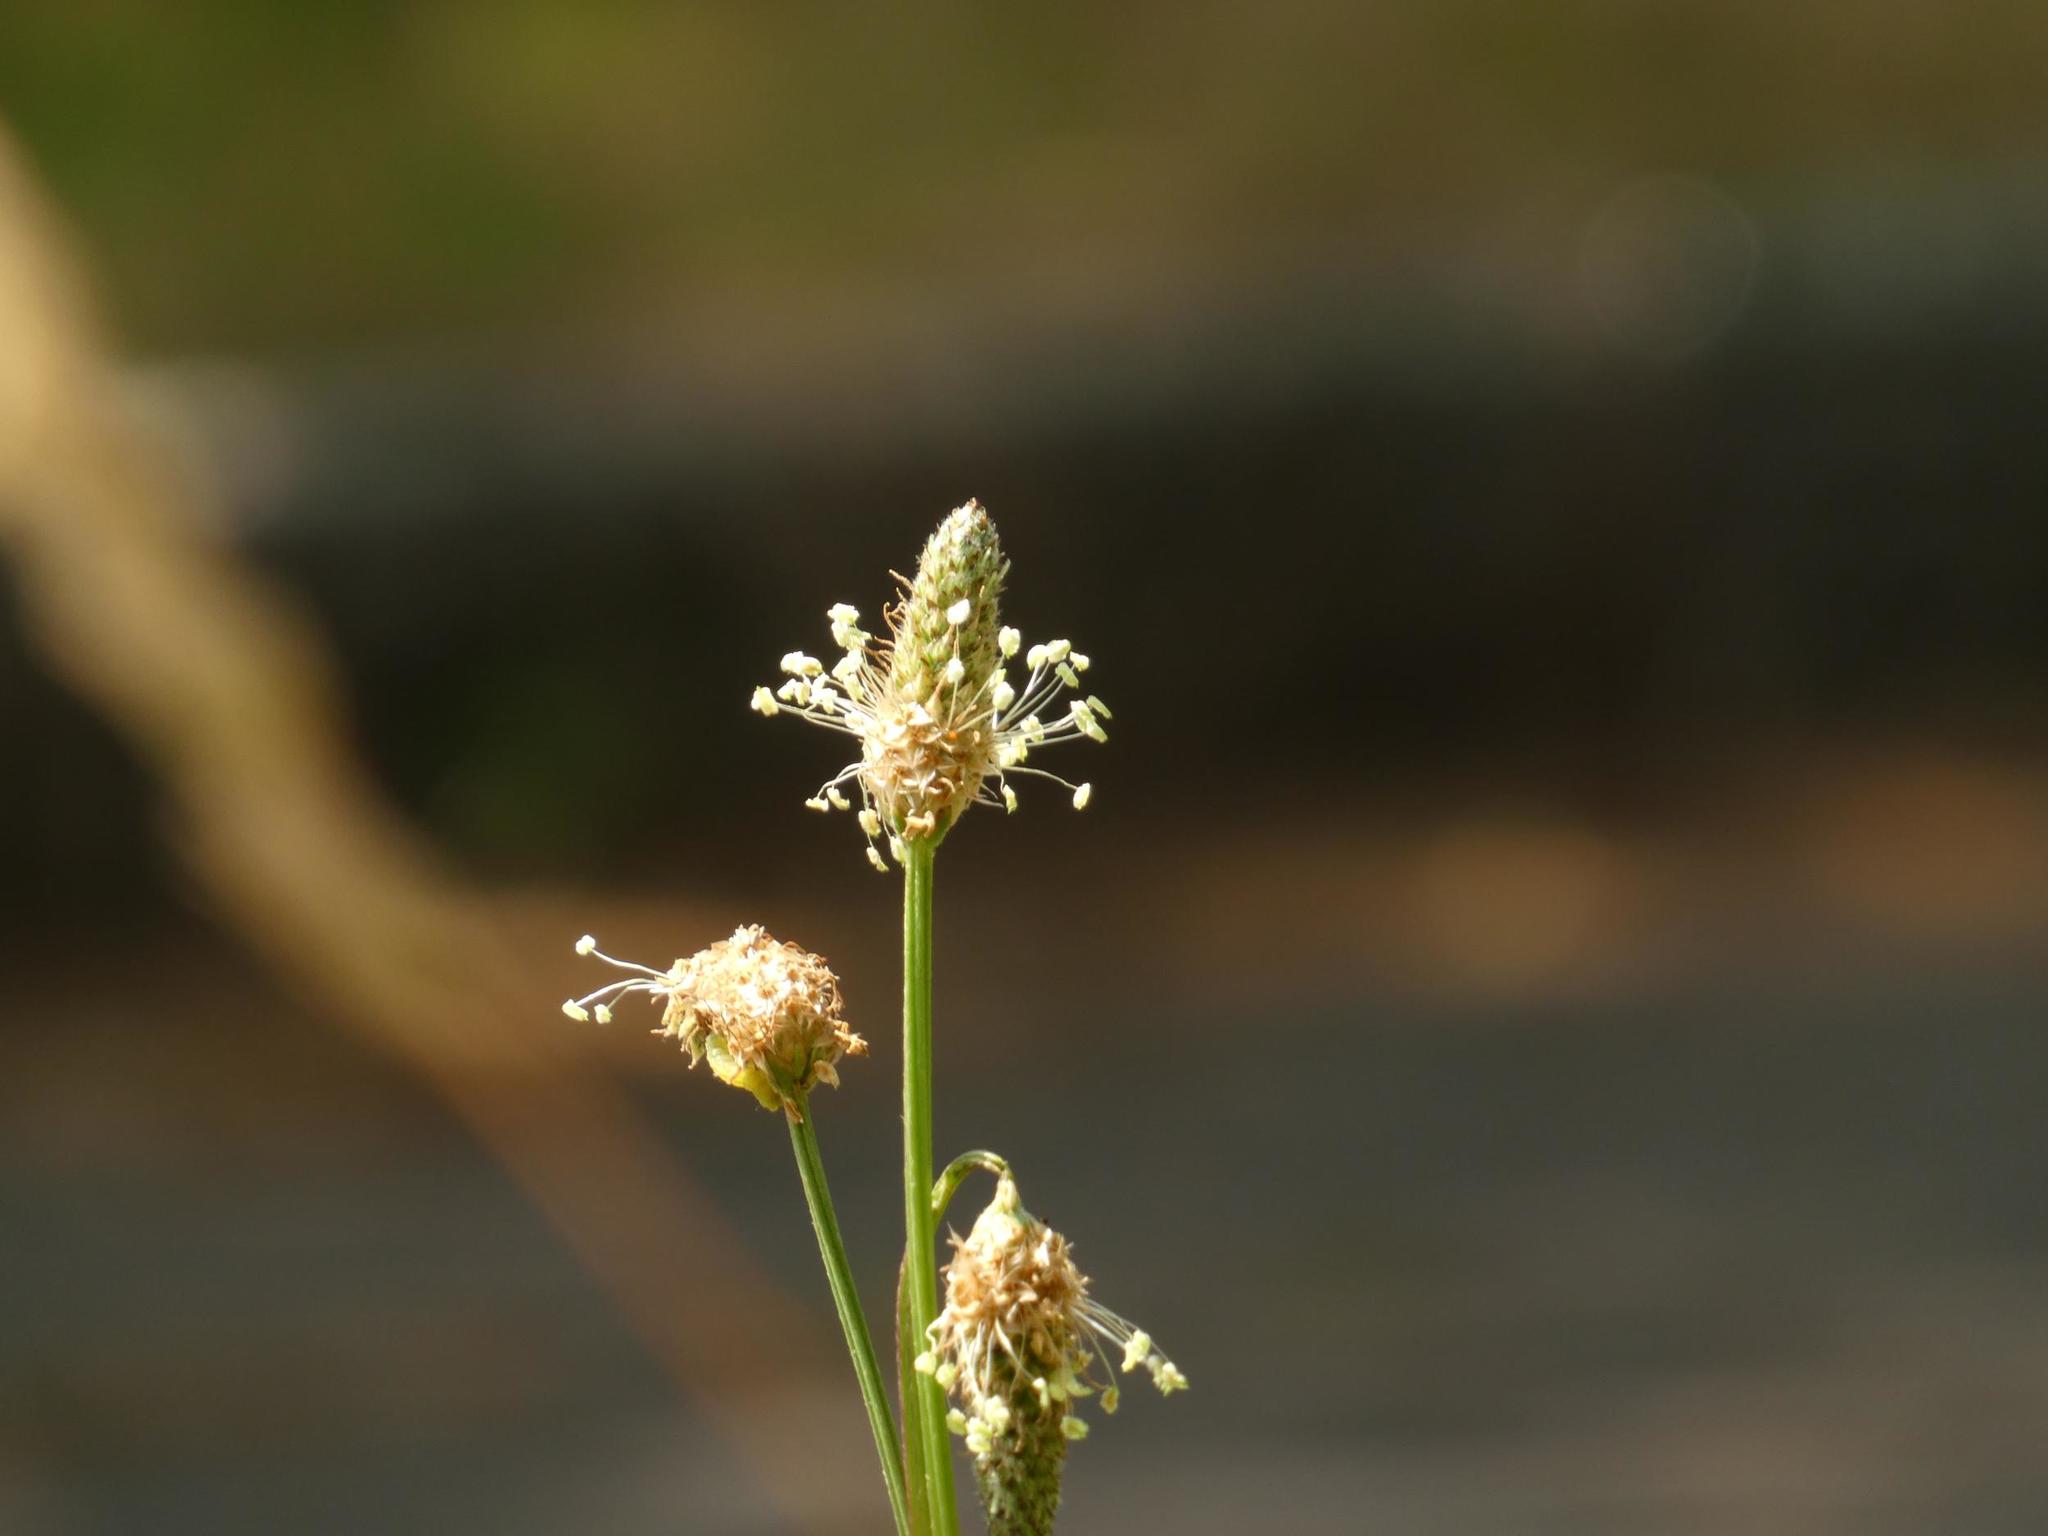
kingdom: Plantae
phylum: Tracheophyta
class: Magnoliopsida
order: Lamiales
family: Plantaginaceae
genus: Plantago
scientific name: Plantago lanceolata
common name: Ribwort plantain
